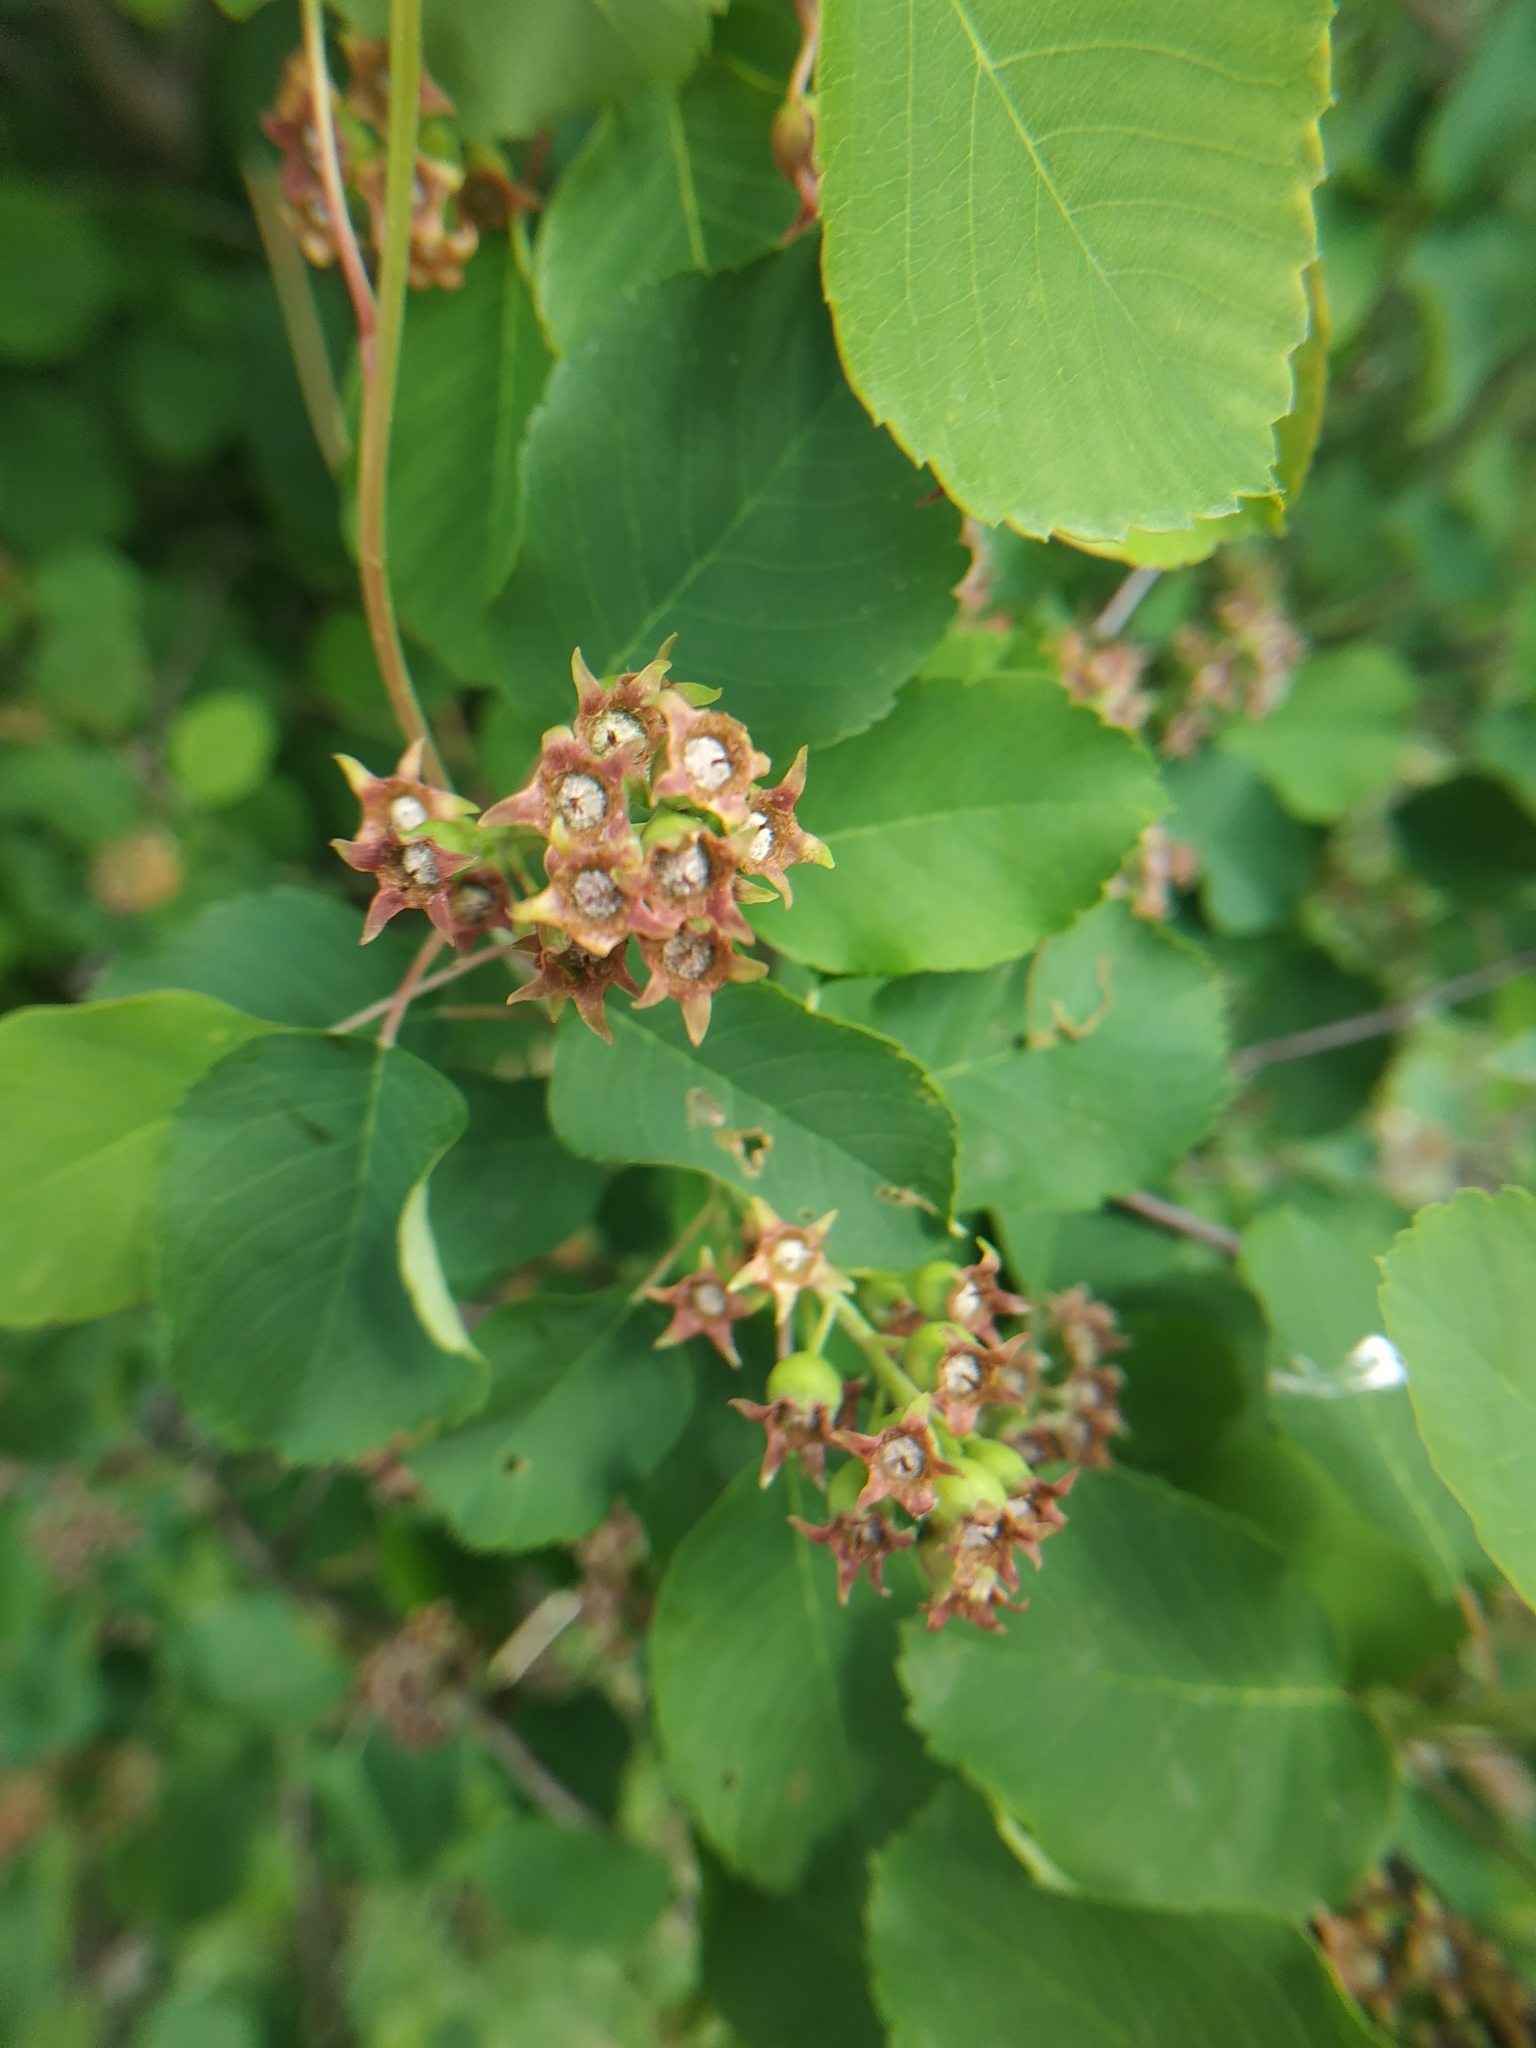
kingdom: Plantae
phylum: Tracheophyta
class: Magnoliopsida
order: Rosales
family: Rosaceae
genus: Amelanchier
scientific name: Amelanchier alnifolia
